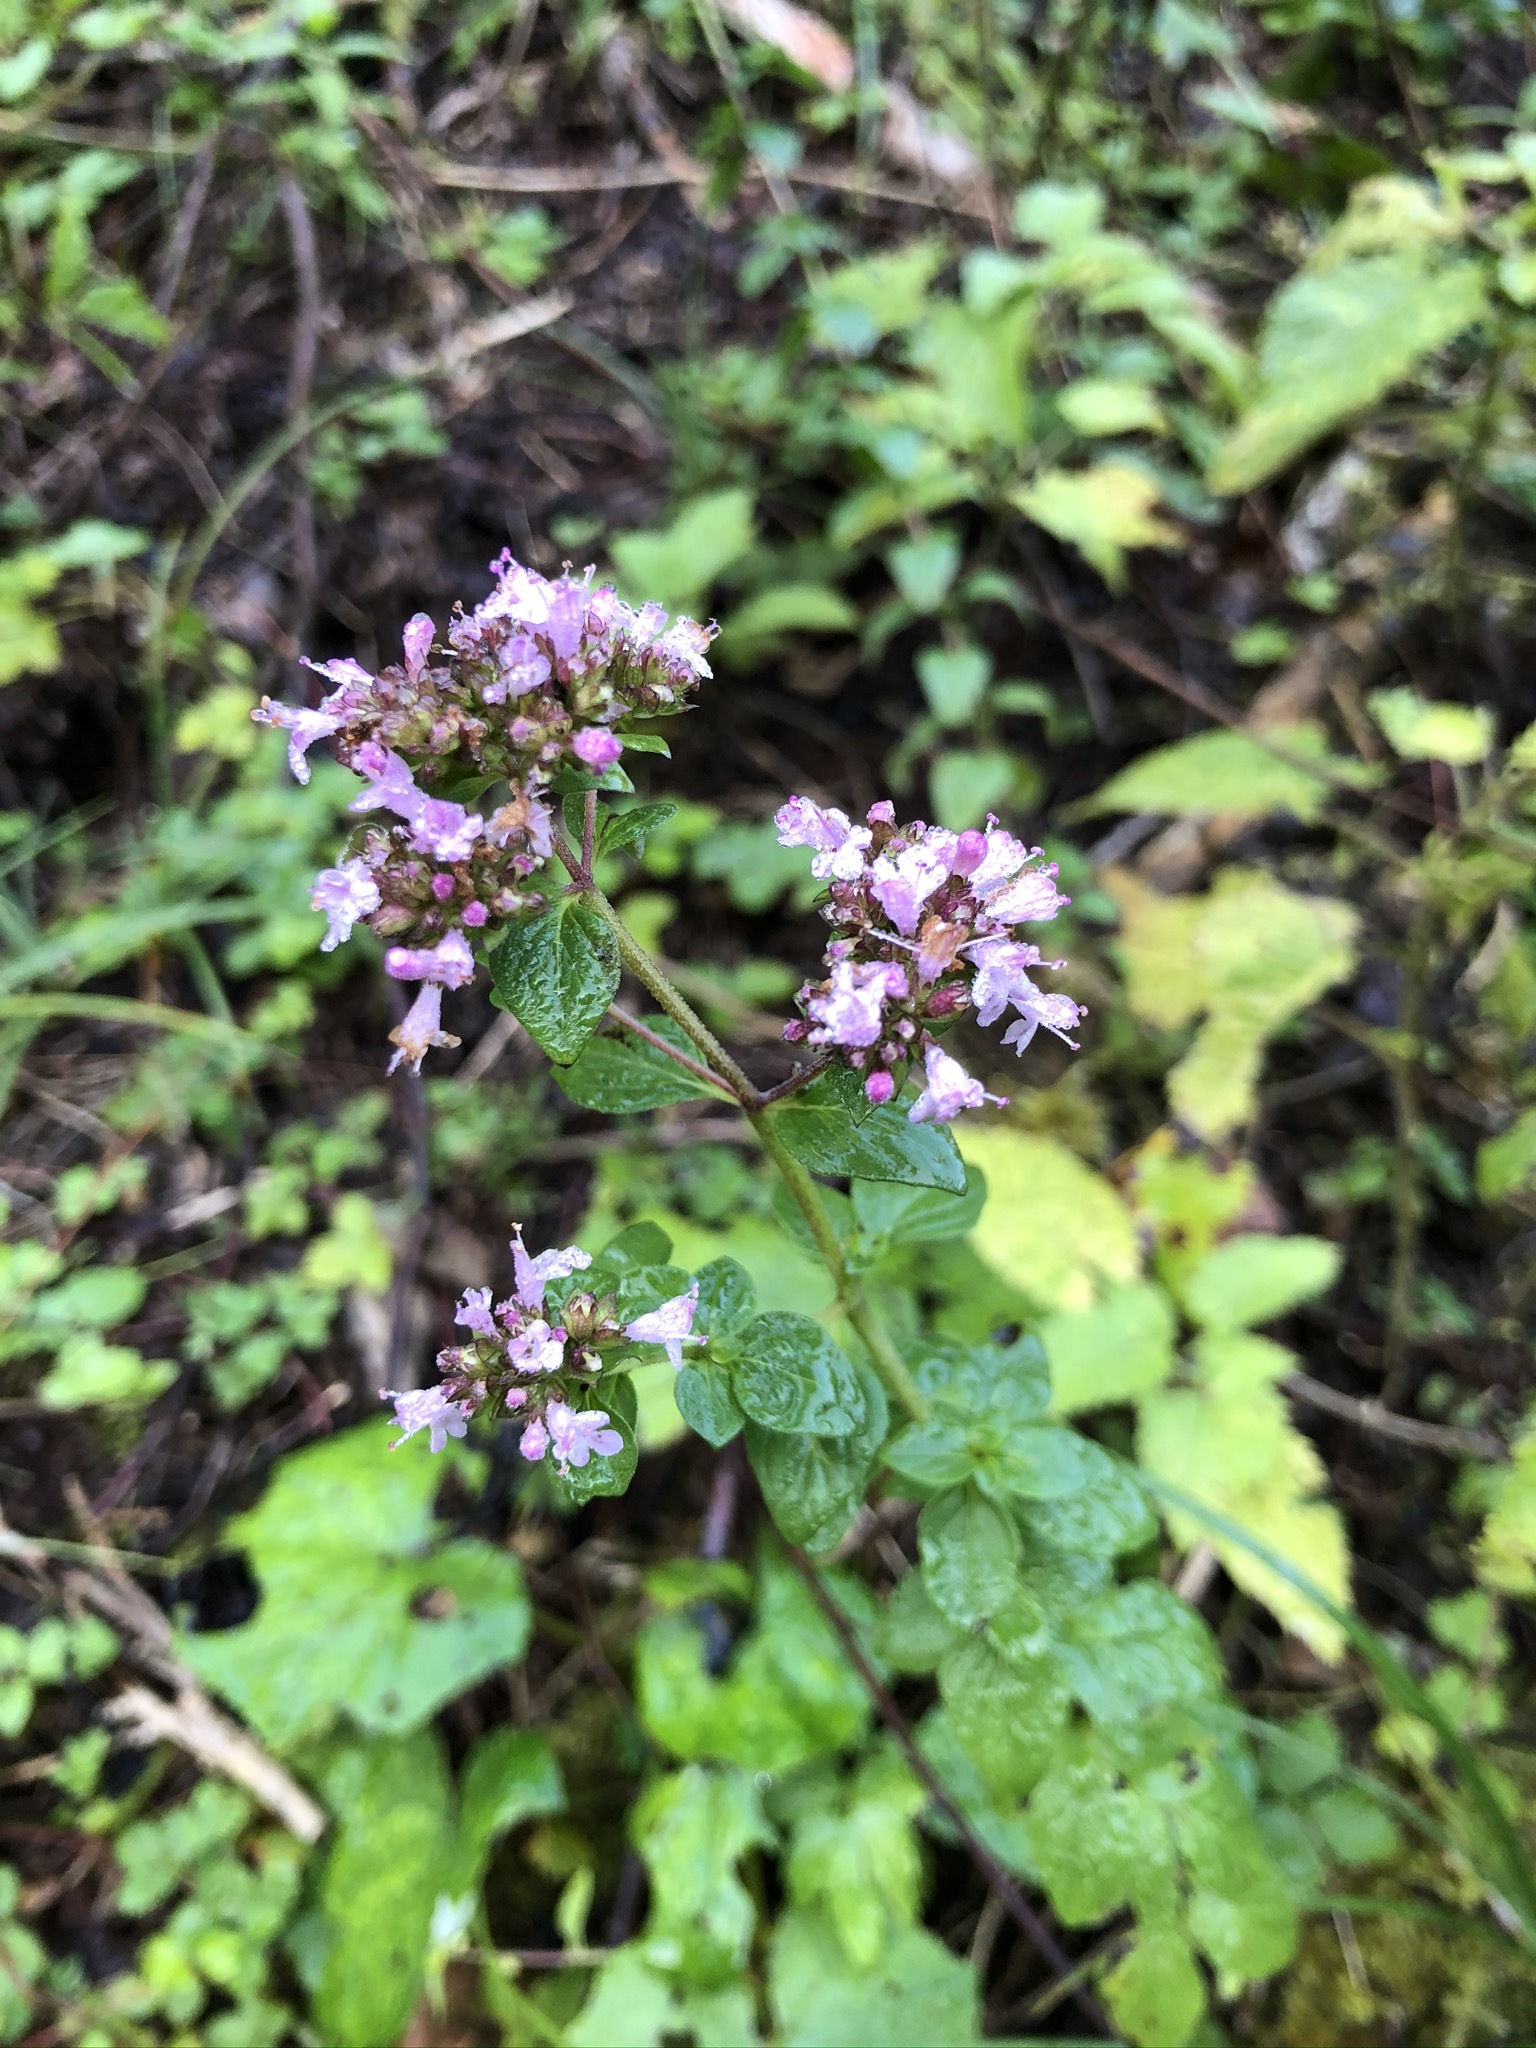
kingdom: Plantae
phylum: Tracheophyta
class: Magnoliopsida
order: Lamiales
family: Lamiaceae
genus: Origanum
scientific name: Origanum vulgare
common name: Wild marjoram
